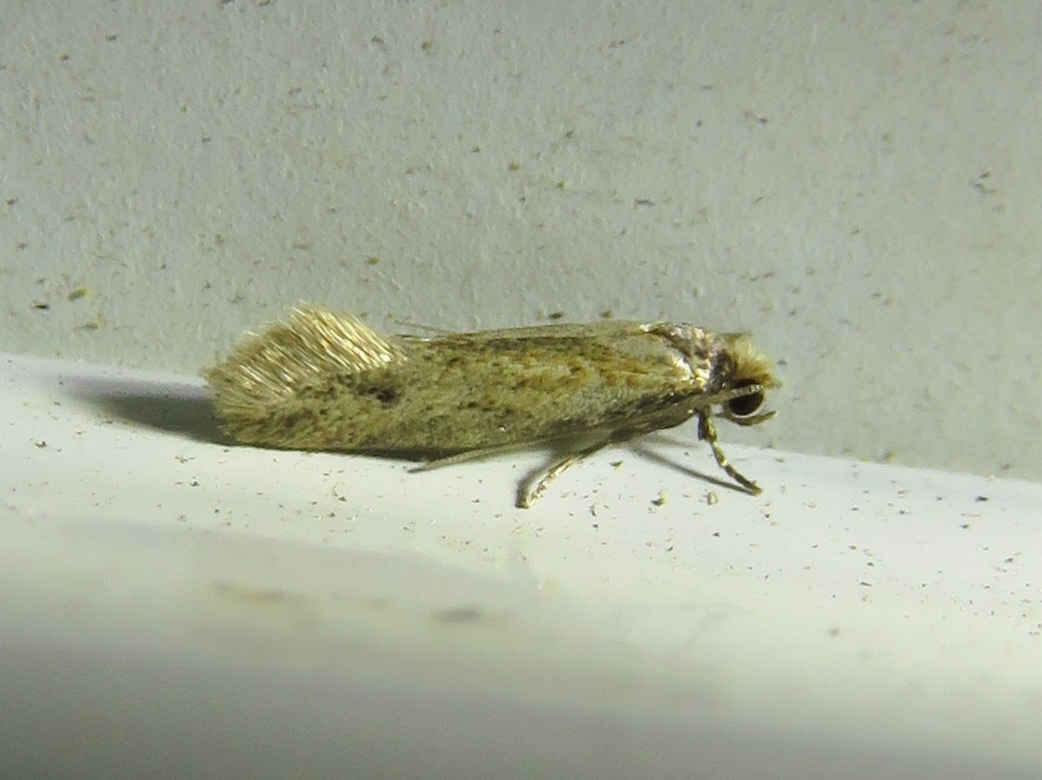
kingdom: Animalia
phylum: Arthropoda
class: Insecta
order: Lepidoptera
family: Meessiidae
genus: Homostinea
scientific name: Homostinea curviliniella
